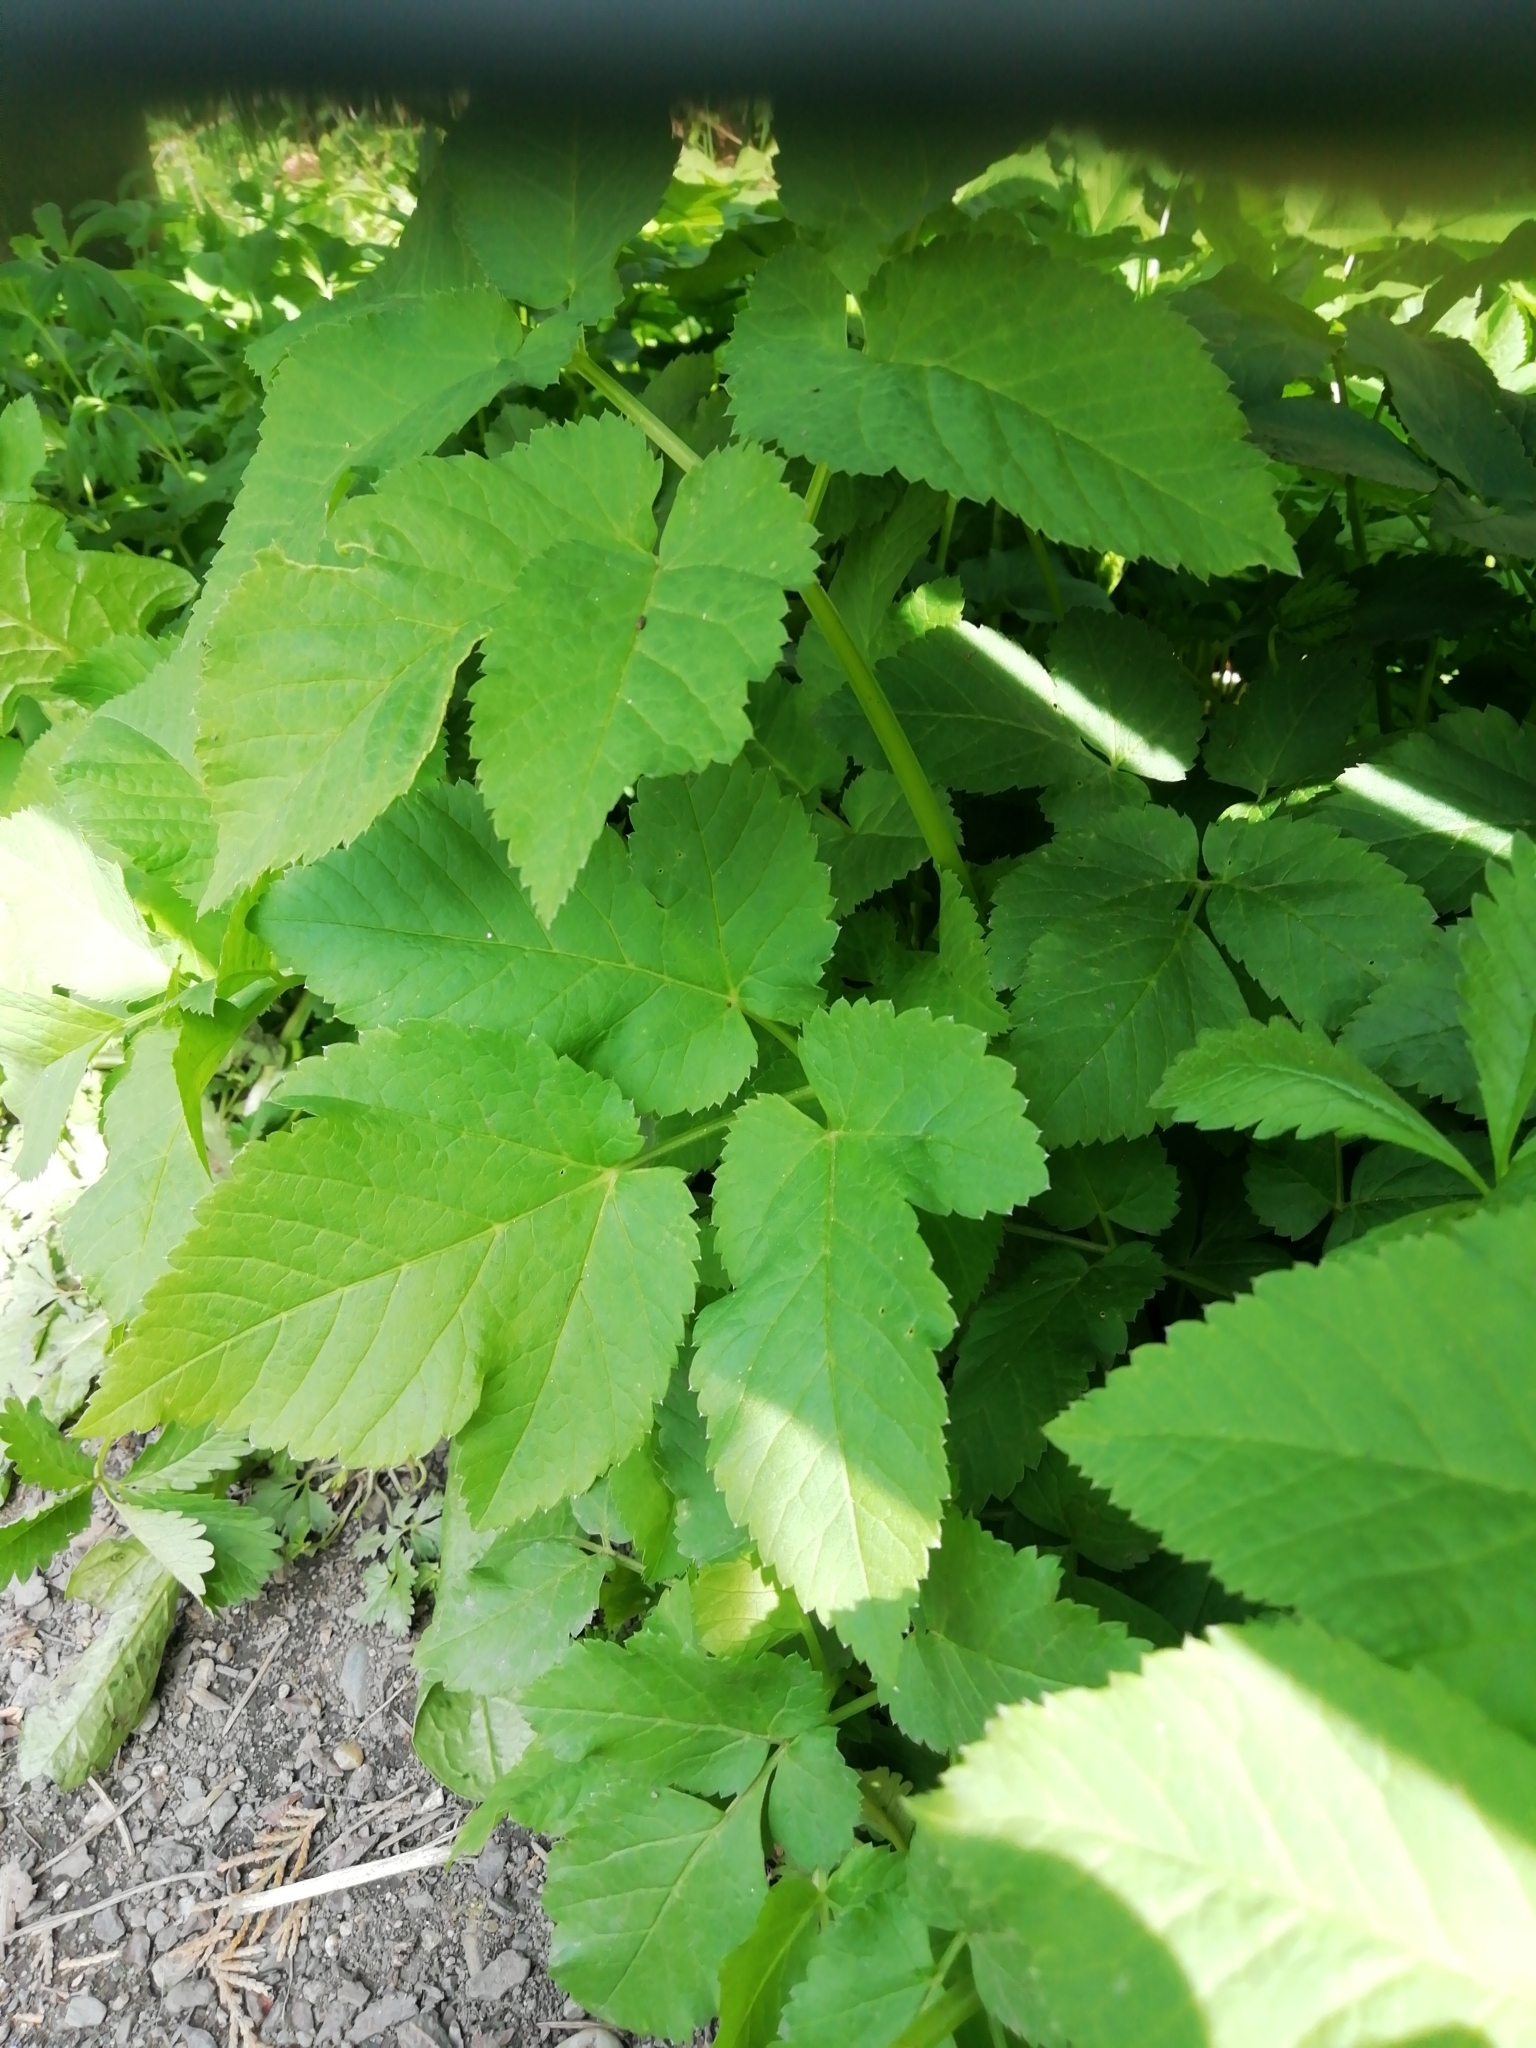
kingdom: Plantae
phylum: Tracheophyta
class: Magnoliopsida
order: Apiales
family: Apiaceae
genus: Aegopodium
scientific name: Aegopodium podagraria
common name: Ground-elder
